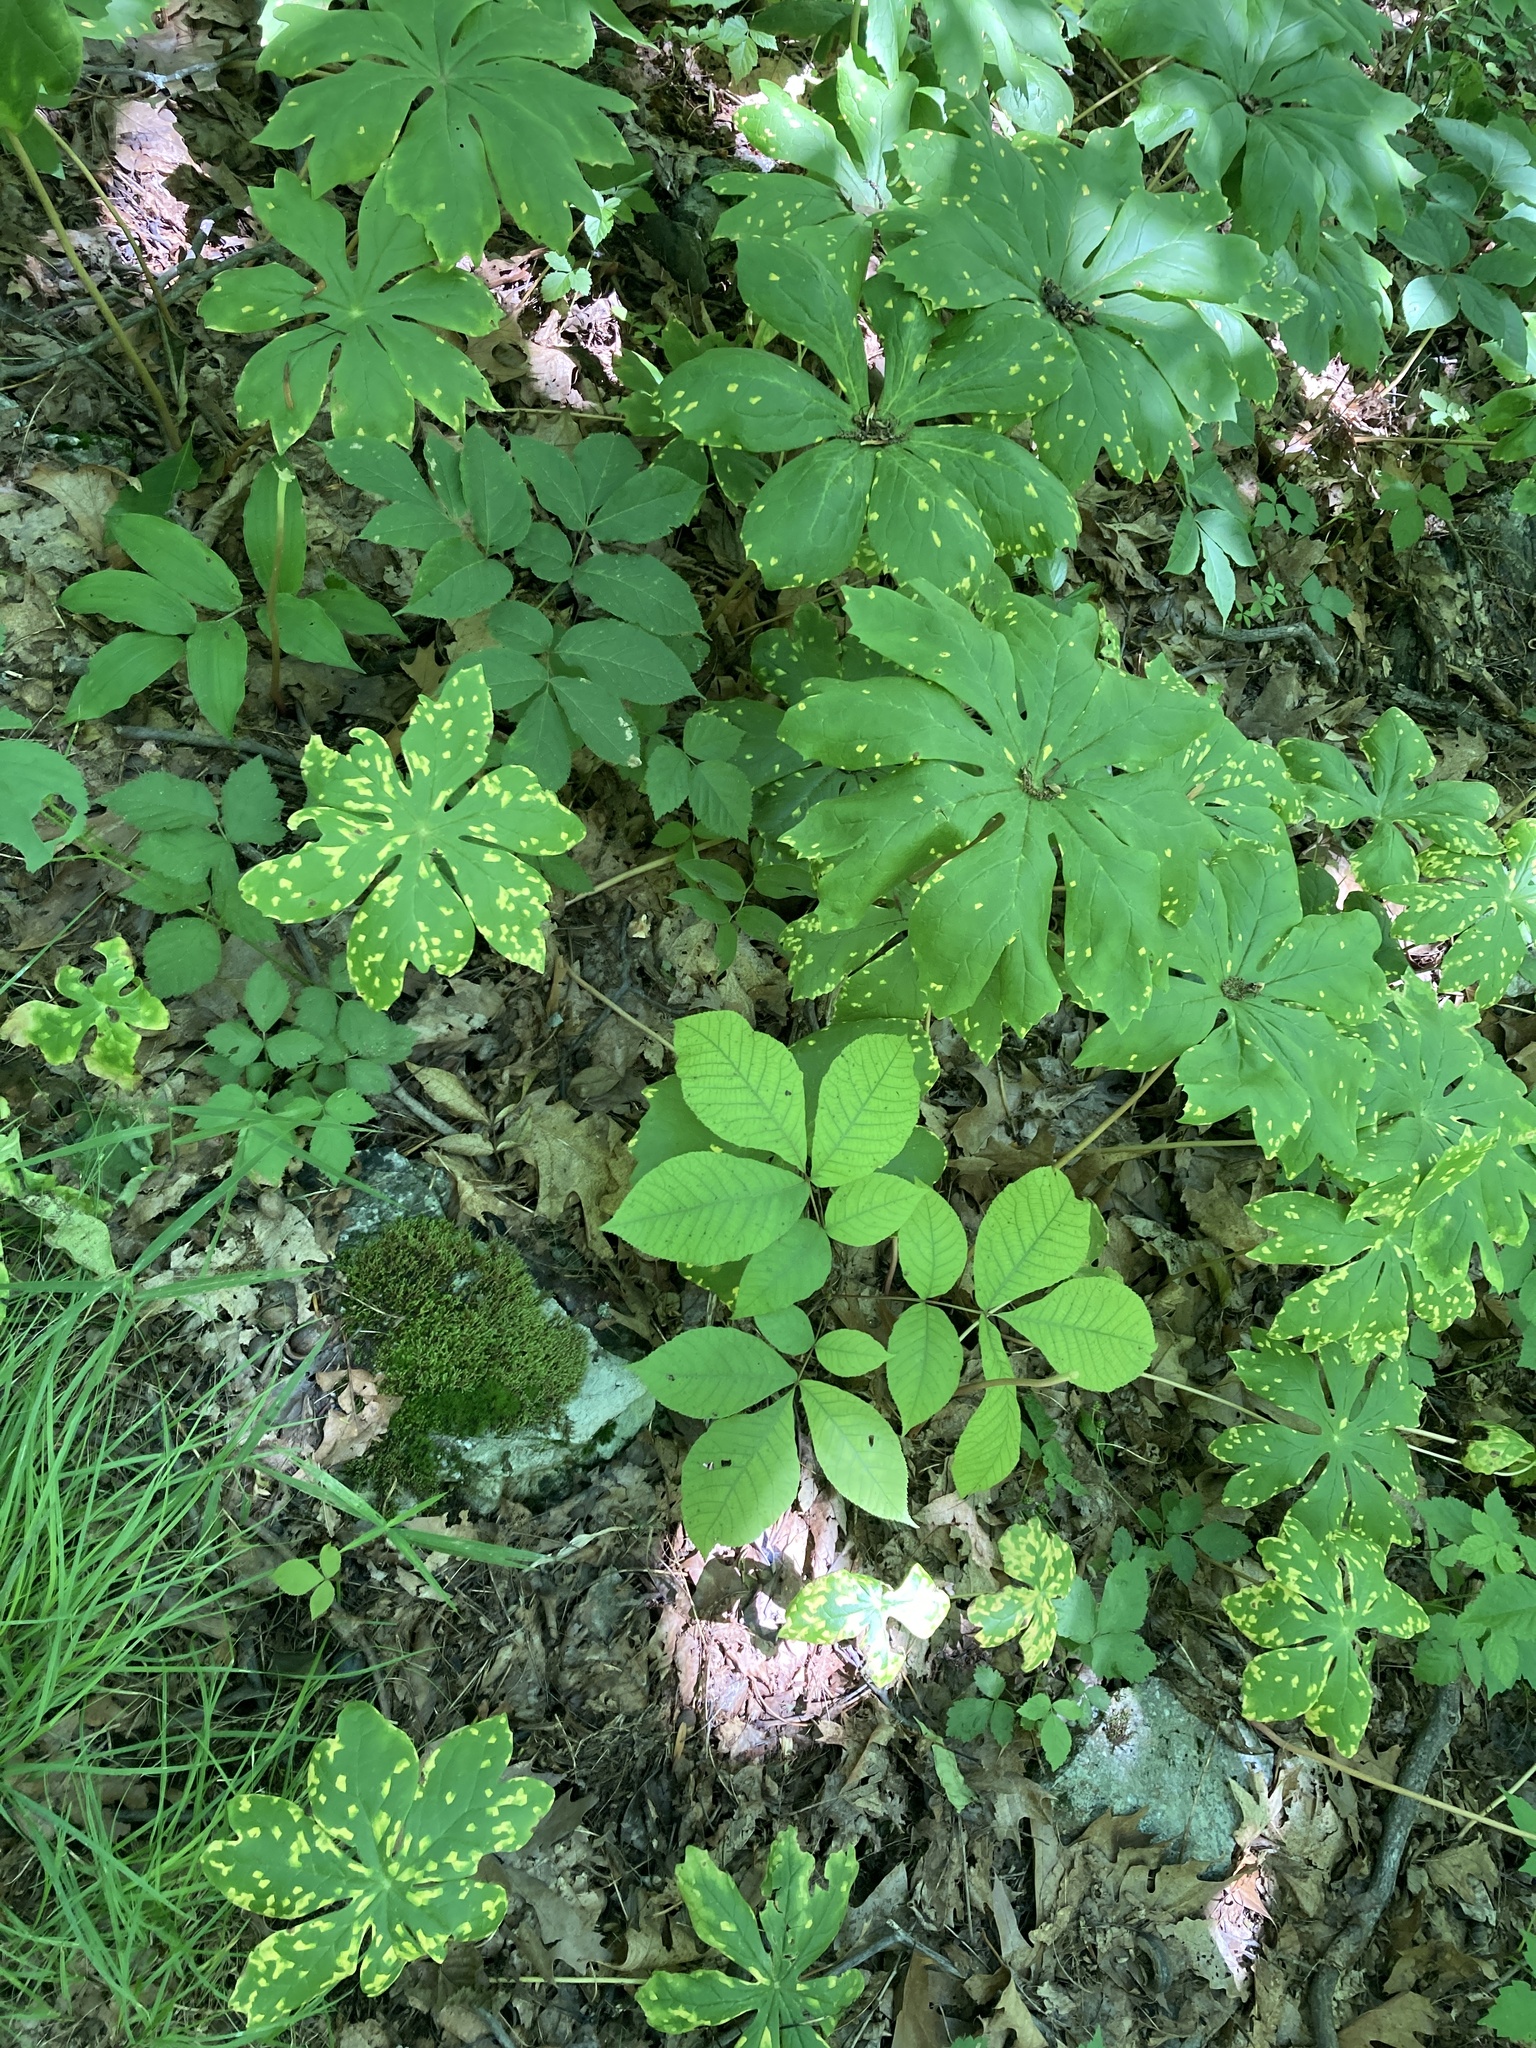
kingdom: Fungi
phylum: Basidiomycota
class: Pucciniomycetes
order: Pucciniales
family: Pucciniaceae
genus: Puccinia
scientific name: Puccinia podophylli
